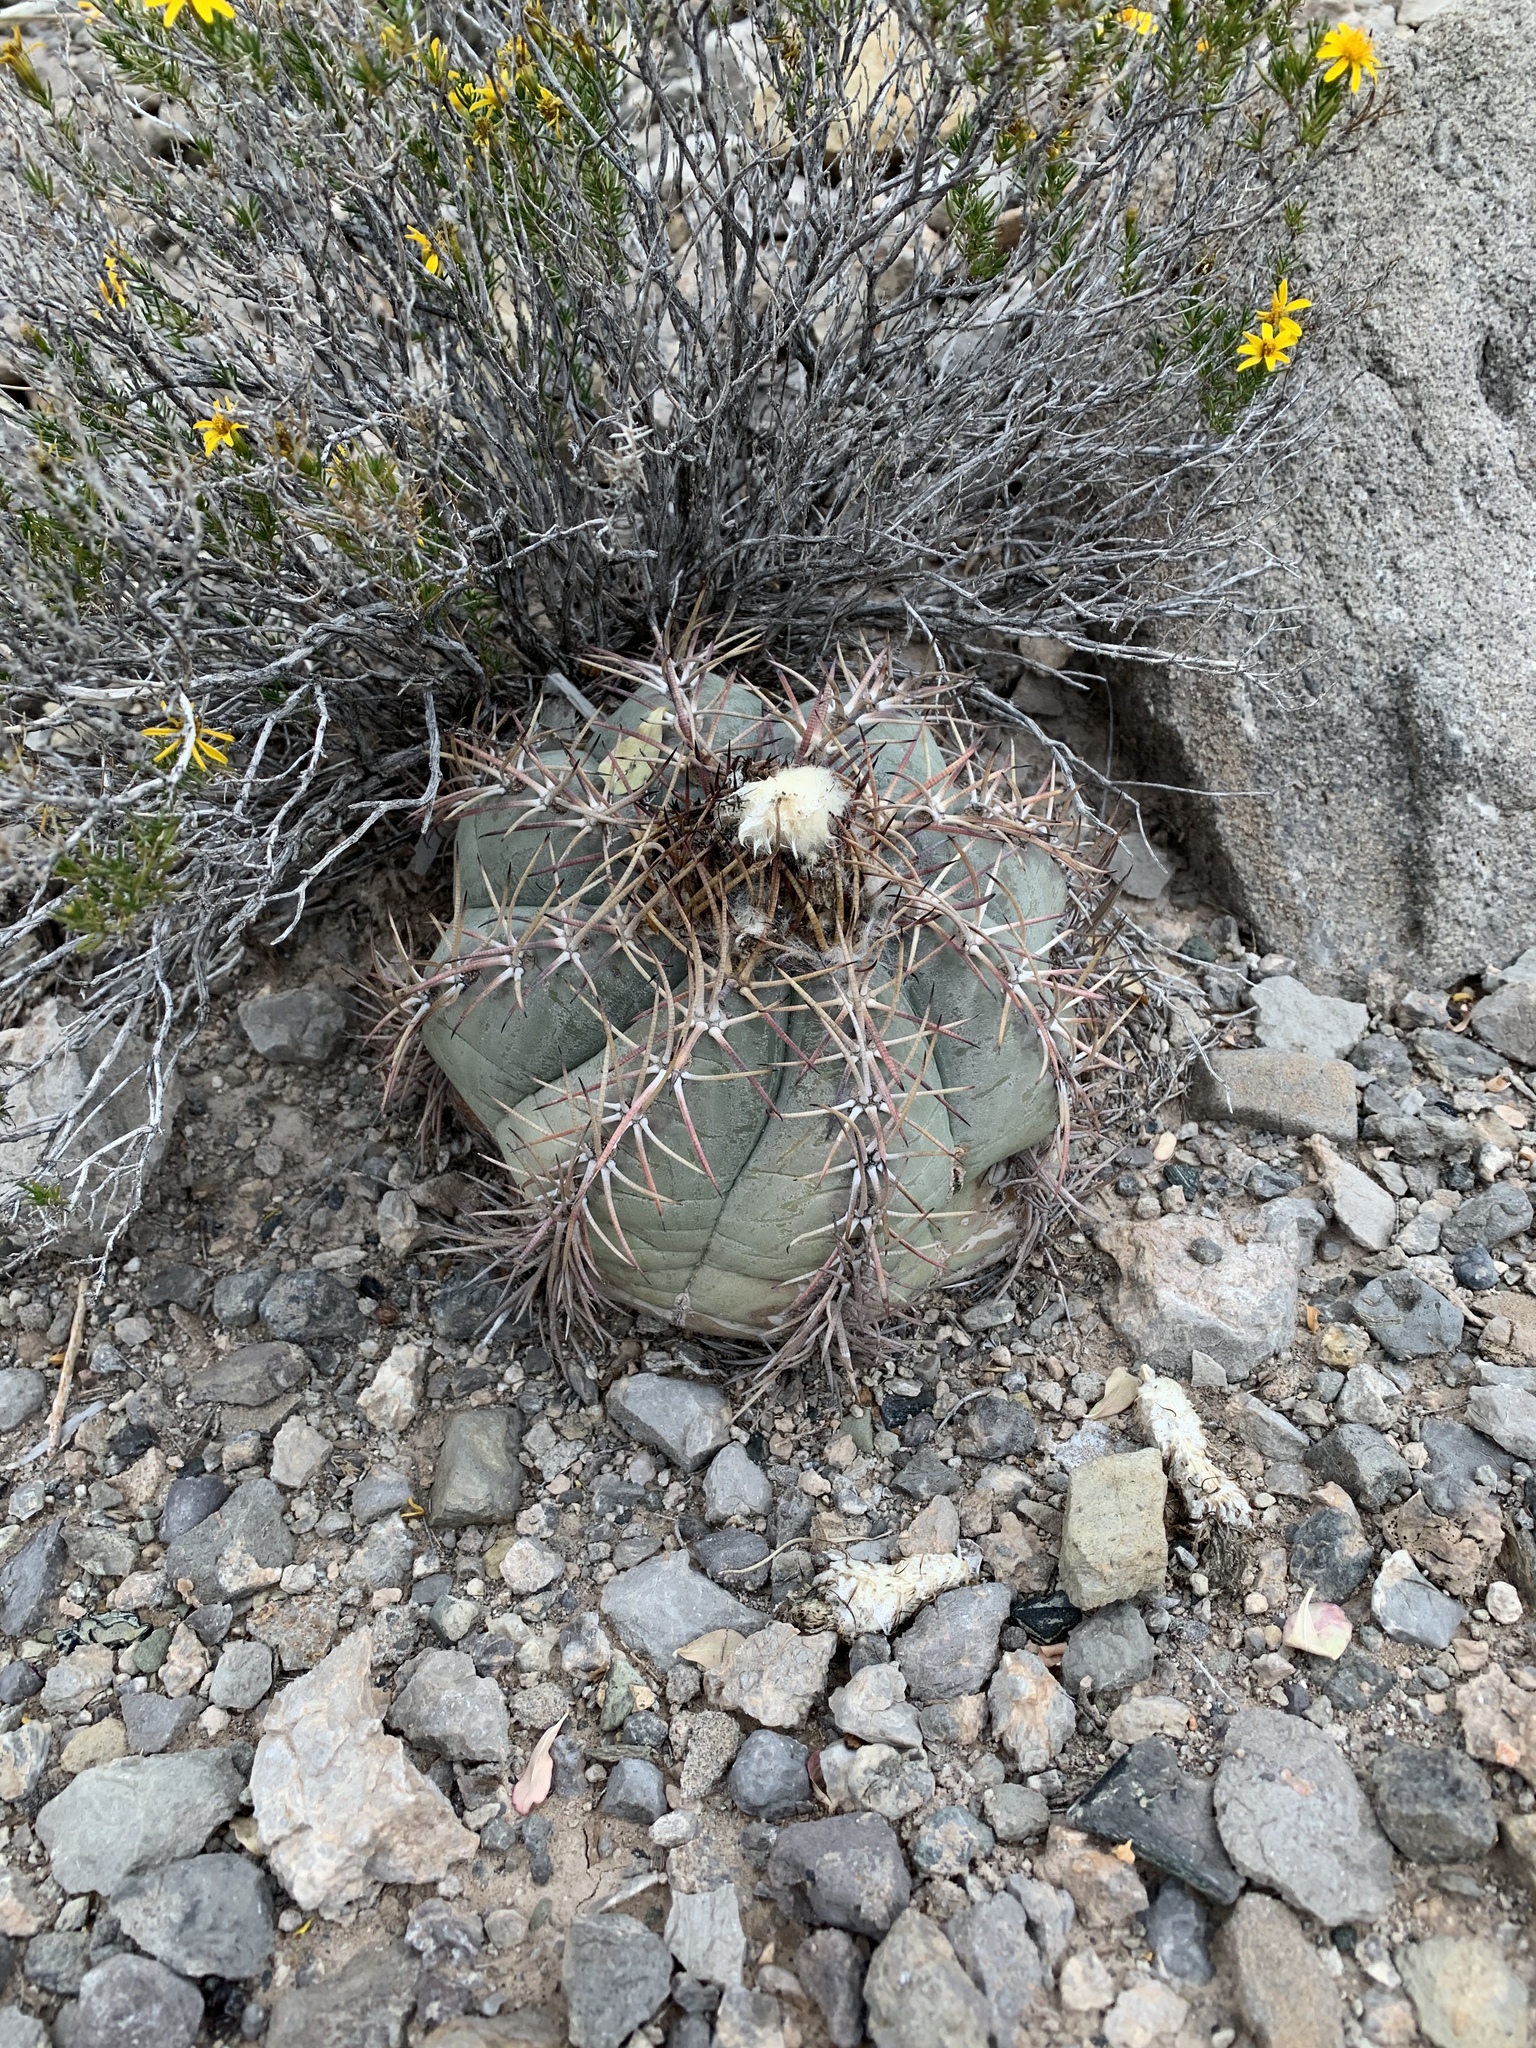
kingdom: Plantae
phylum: Tracheophyta
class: Magnoliopsida
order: Caryophyllales
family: Cactaceae
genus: Echinocactus
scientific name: Echinocactus horizonthalonius
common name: Devilshead
